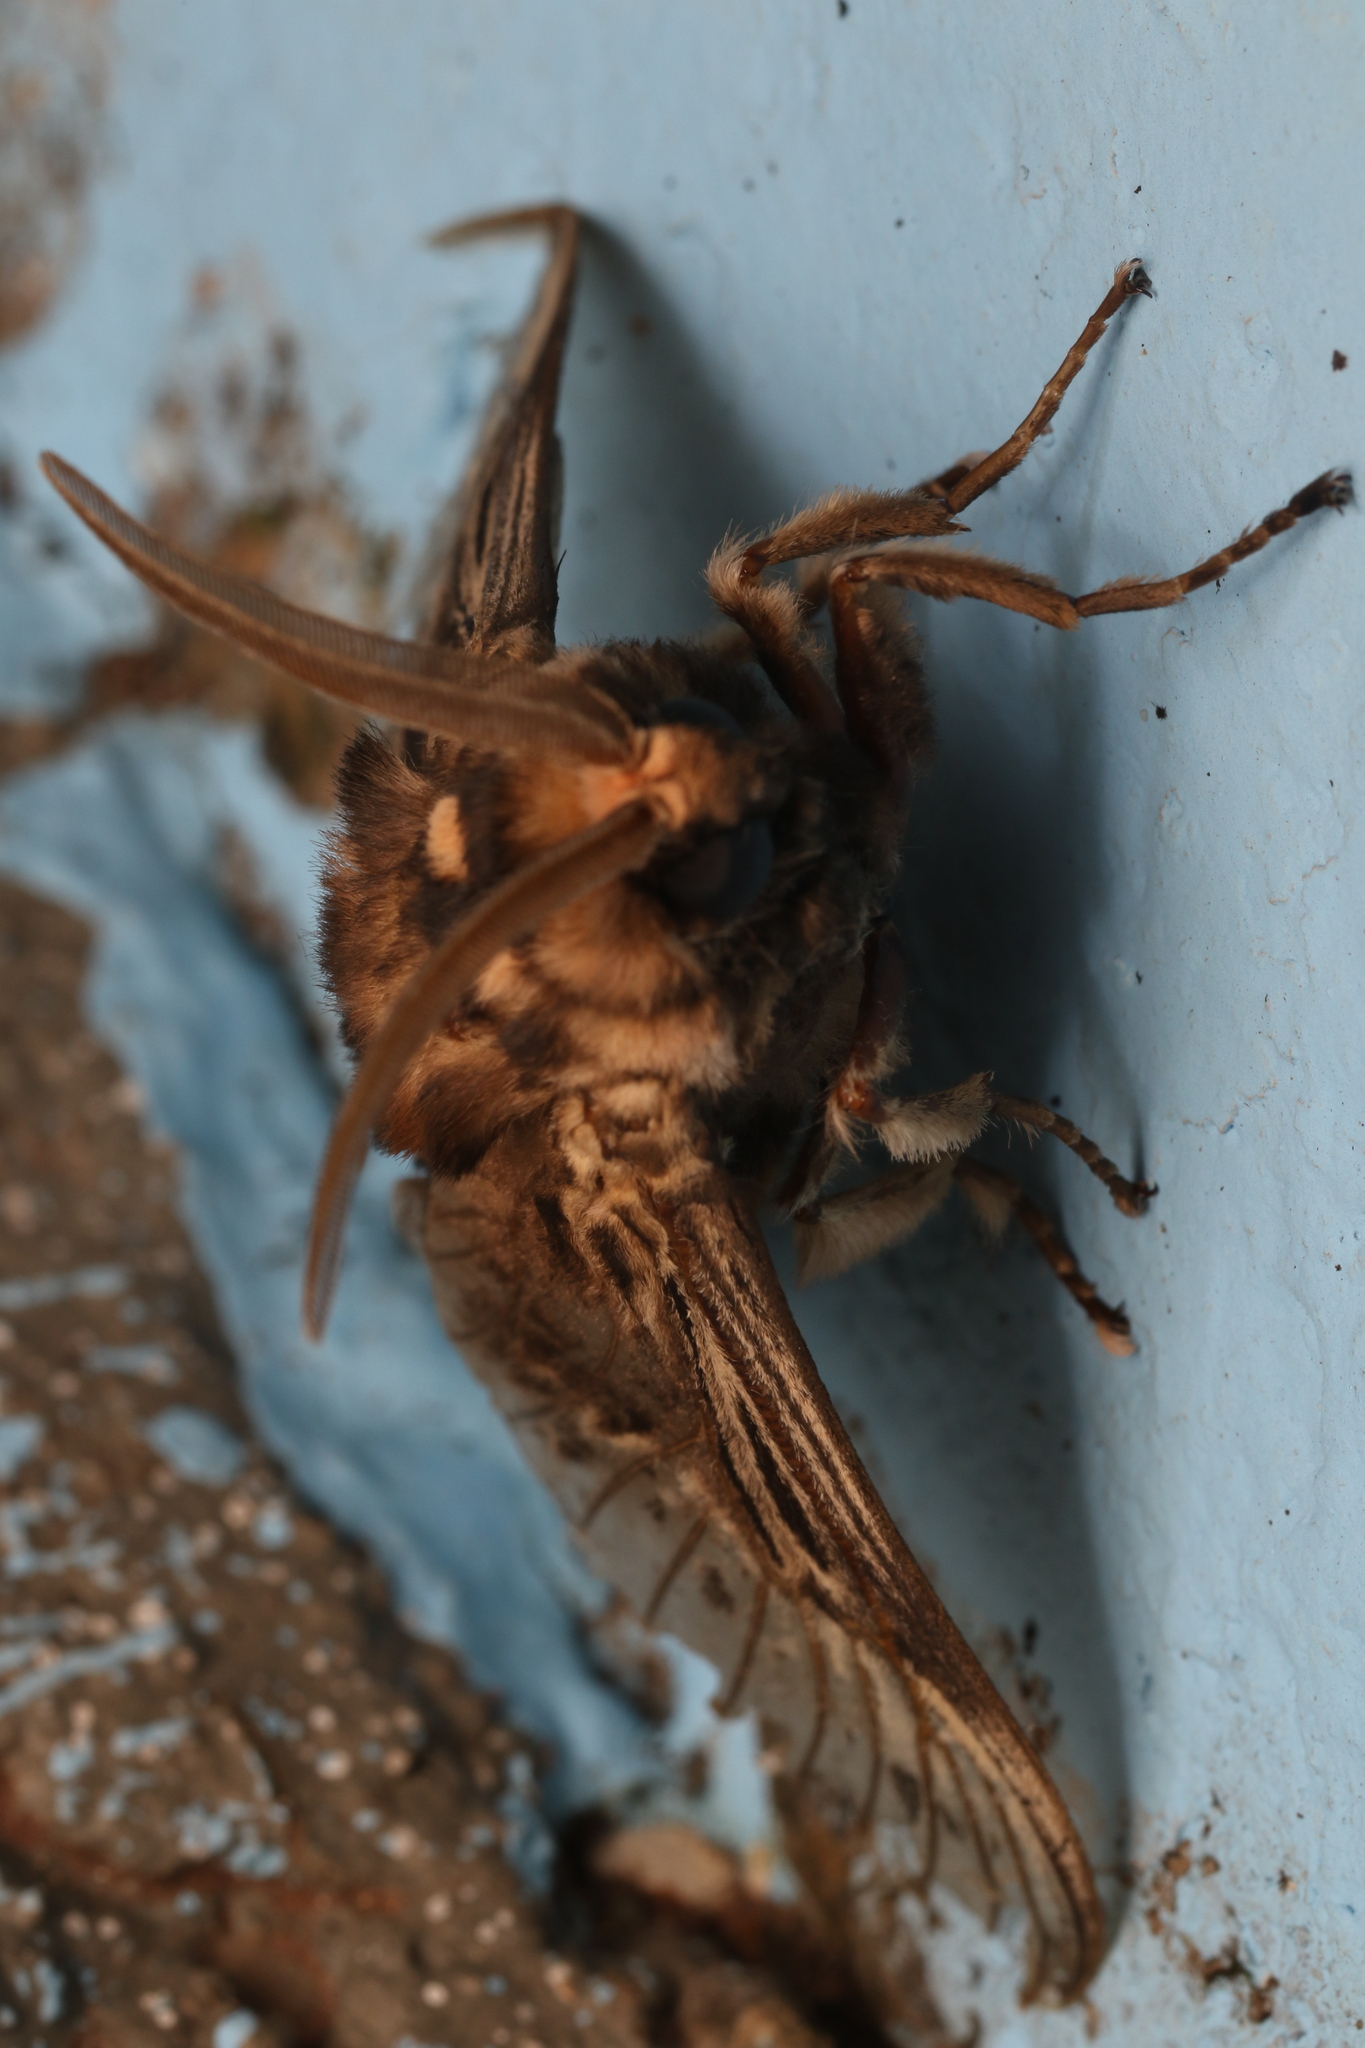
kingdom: Animalia
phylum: Arthropoda
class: Insecta
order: Lepidoptera
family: Megalopygidae
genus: Podalia
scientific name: Podalia fuscescens
